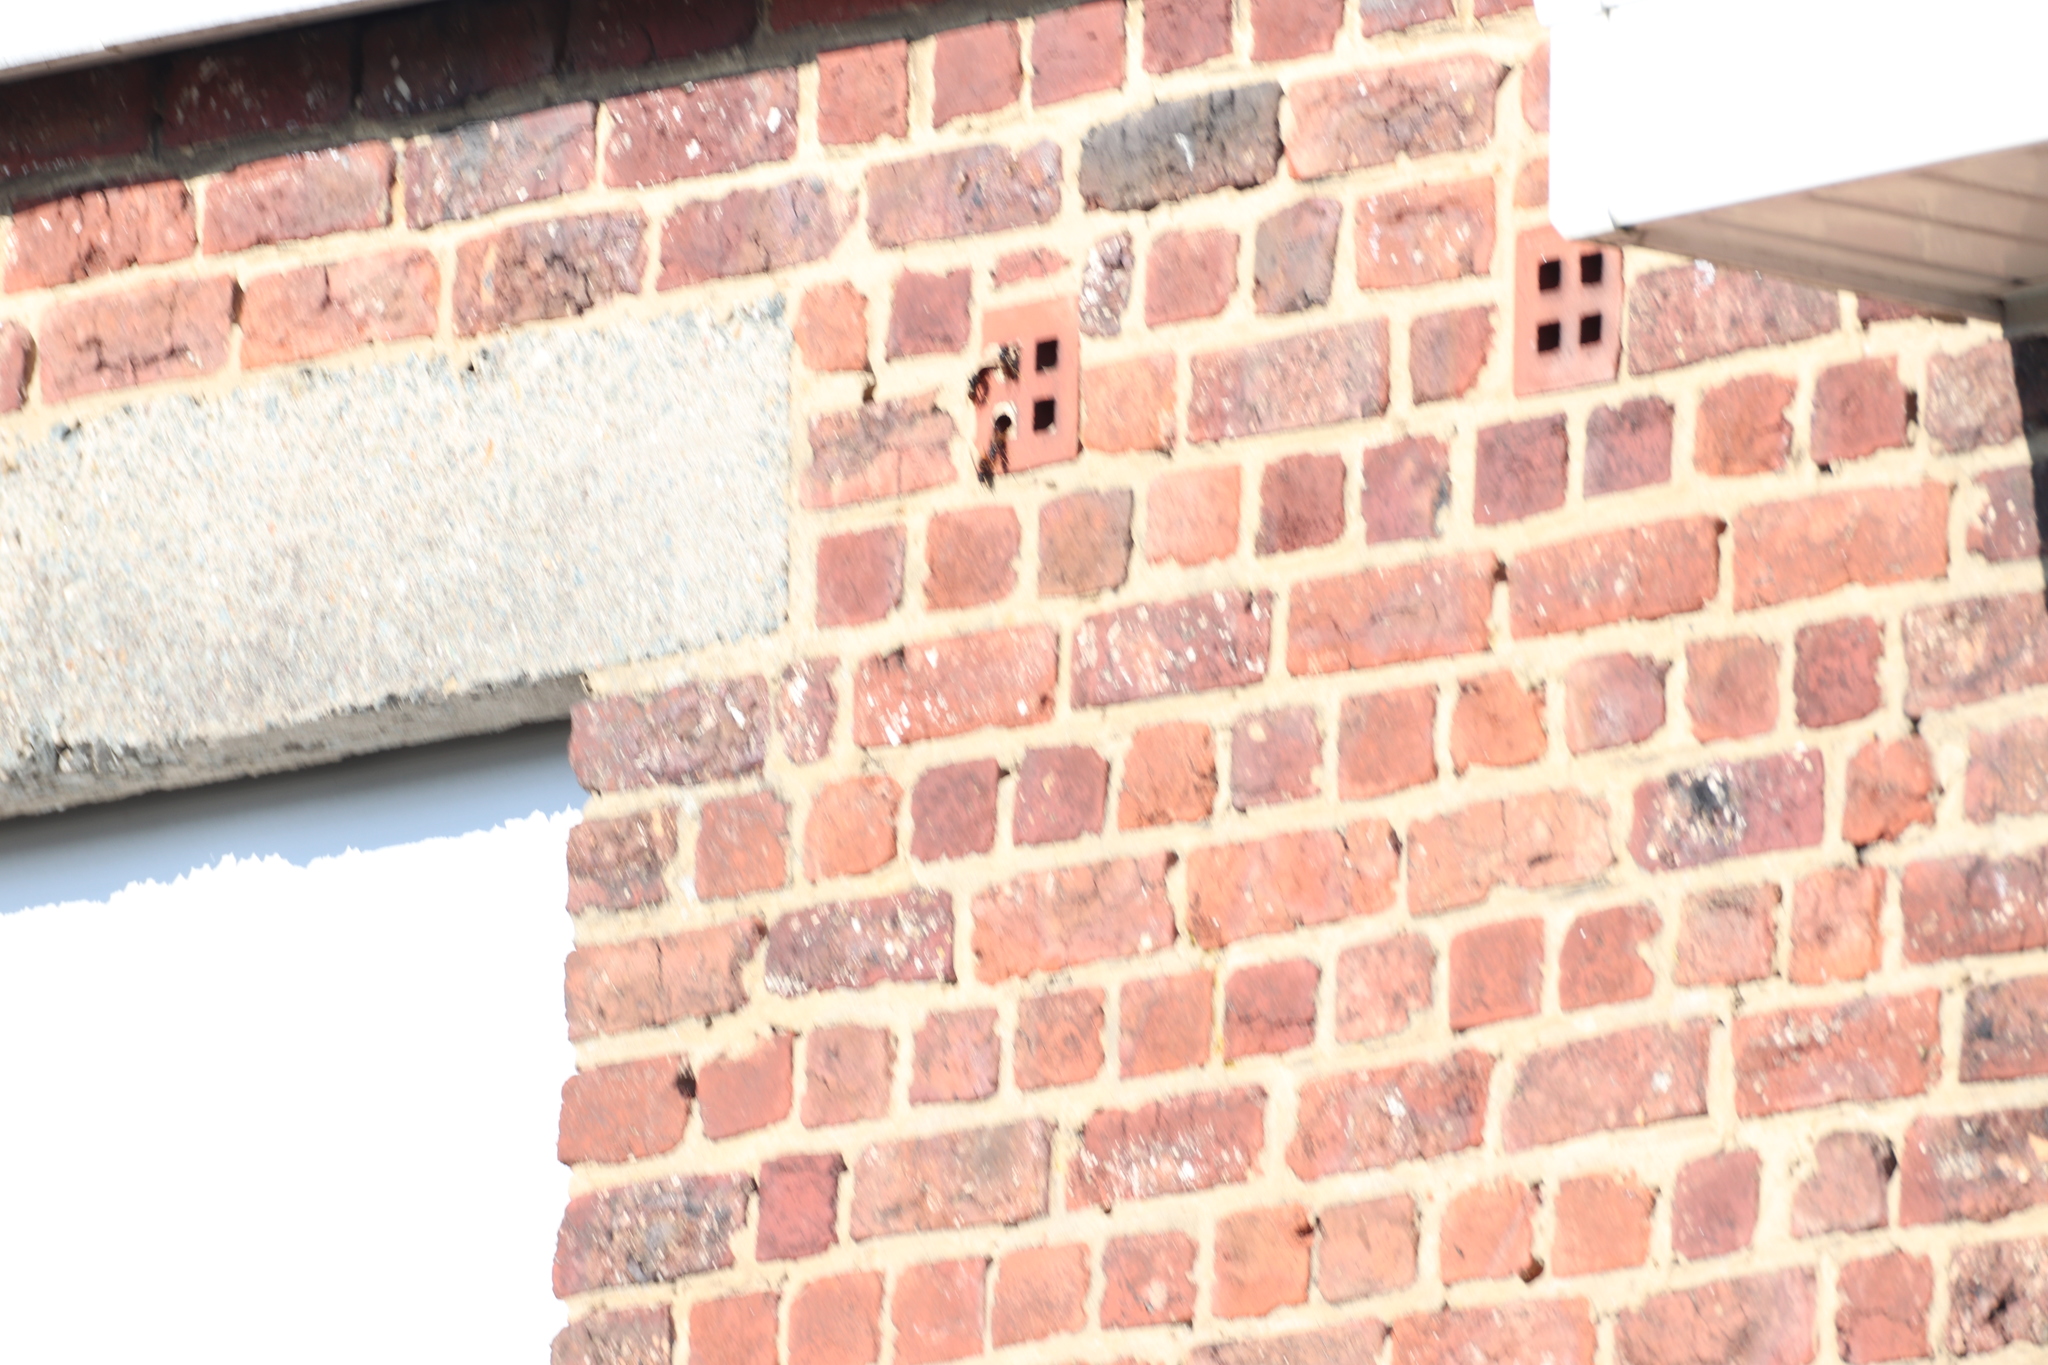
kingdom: Animalia
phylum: Arthropoda
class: Insecta
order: Hymenoptera
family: Vespidae
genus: Vespa
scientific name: Vespa velutina
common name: Asian hornet
